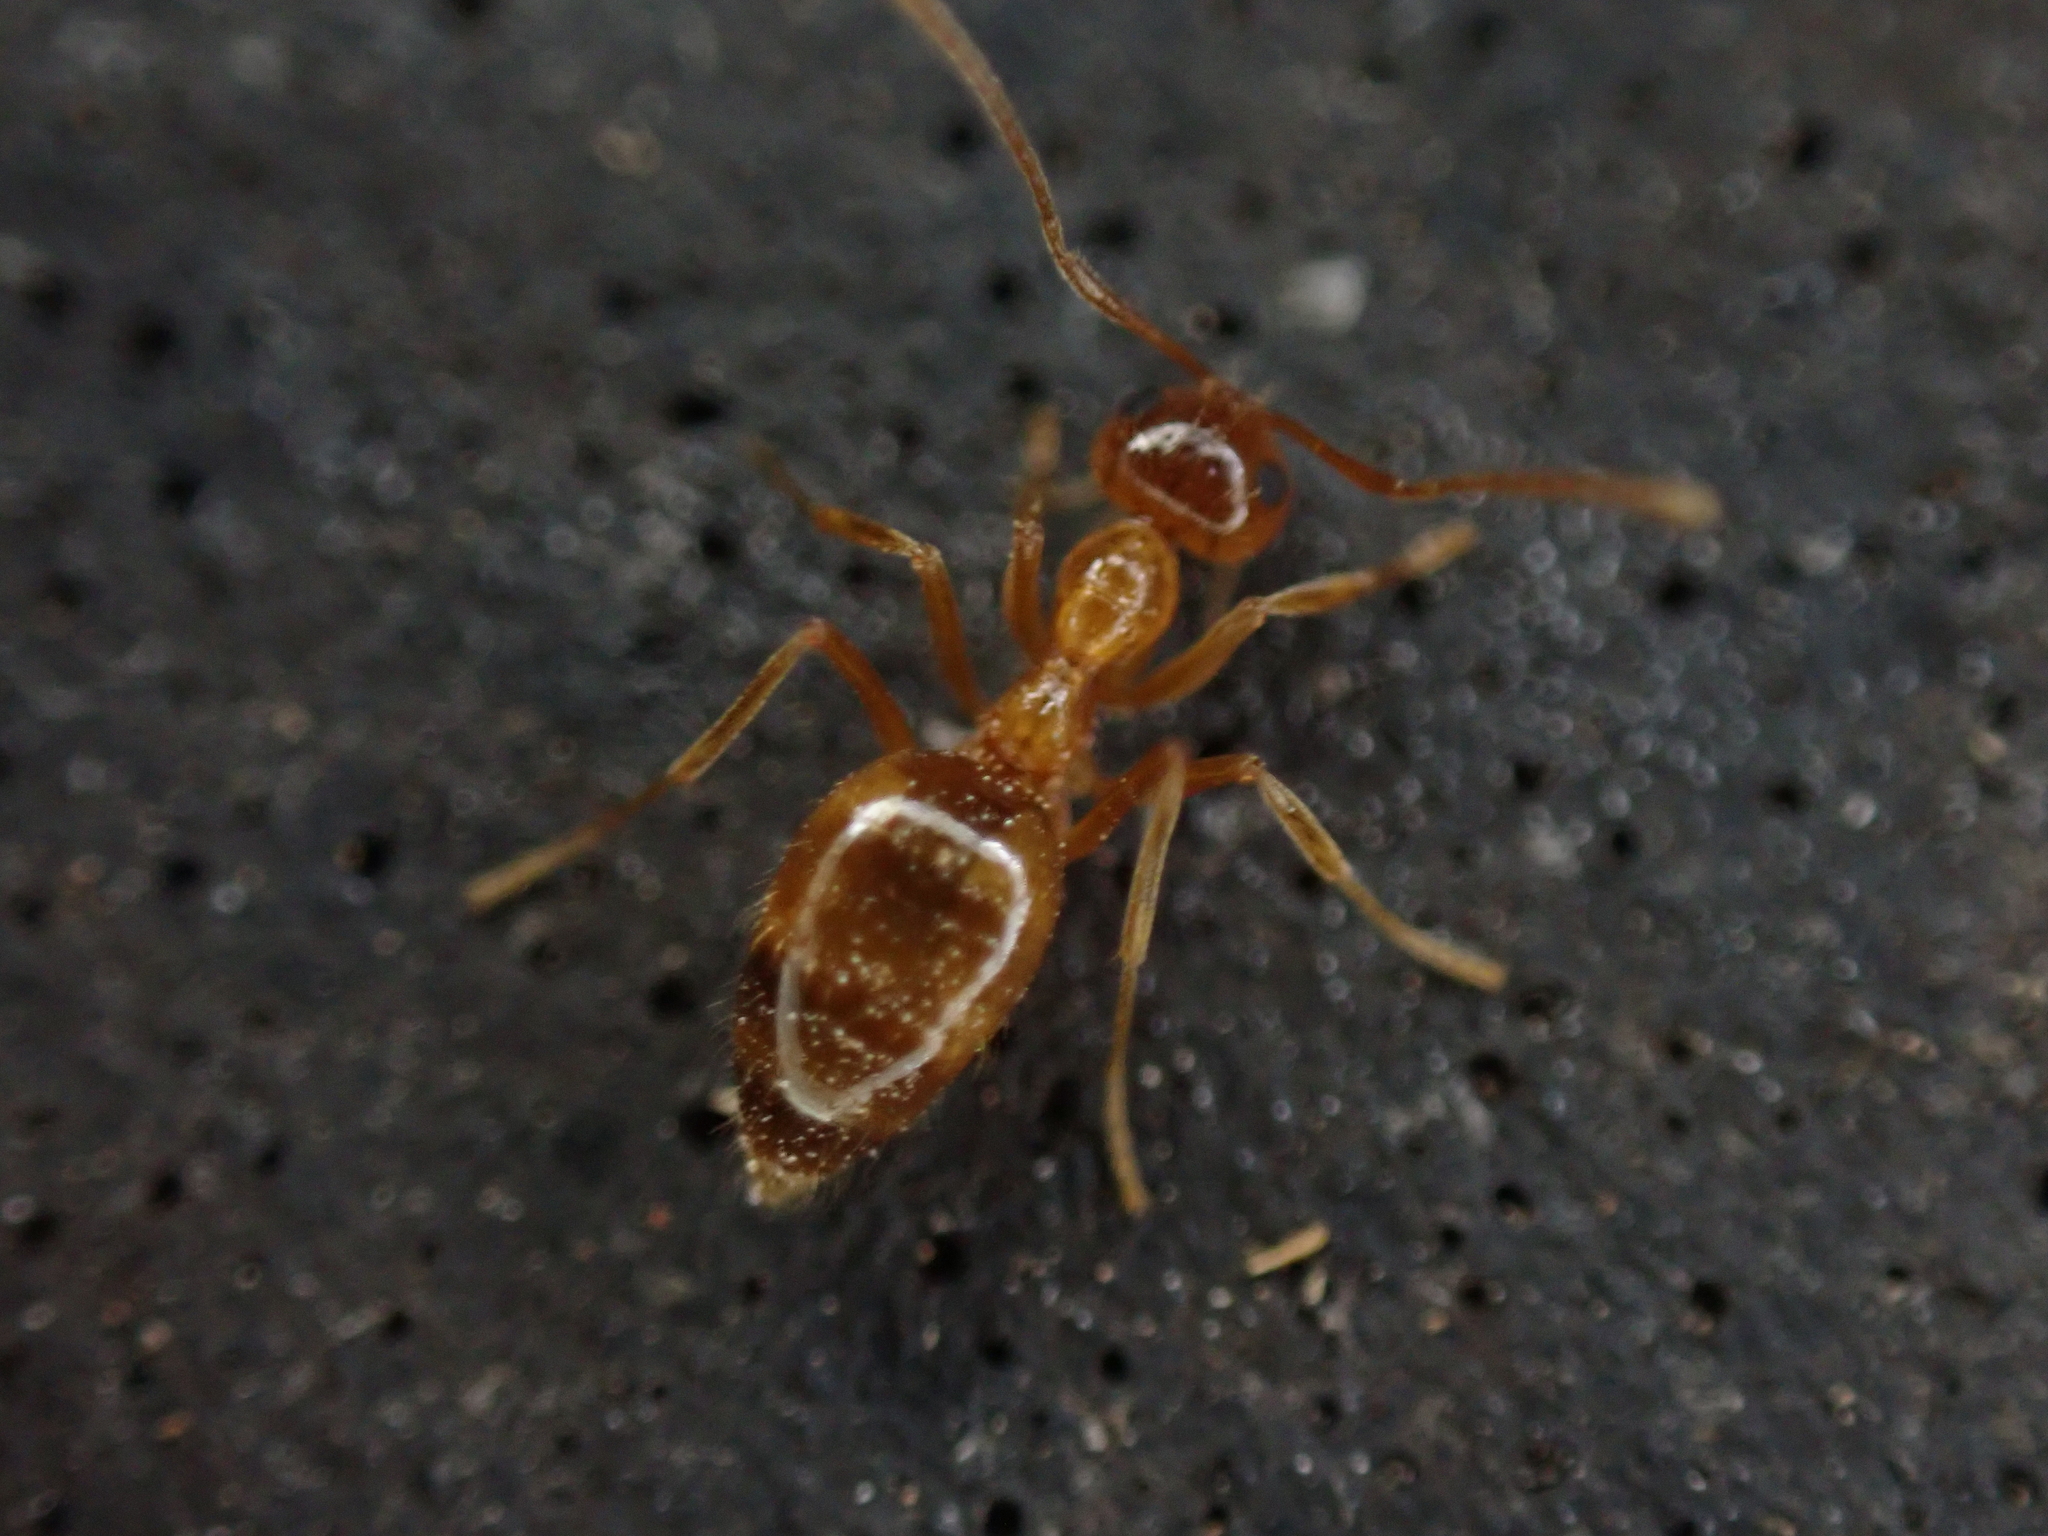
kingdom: Animalia
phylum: Arthropoda
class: Insecta
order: Hymenoptera
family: Formicidae
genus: Prenolepis
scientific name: Prenolepis imparis
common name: Small honey ant
